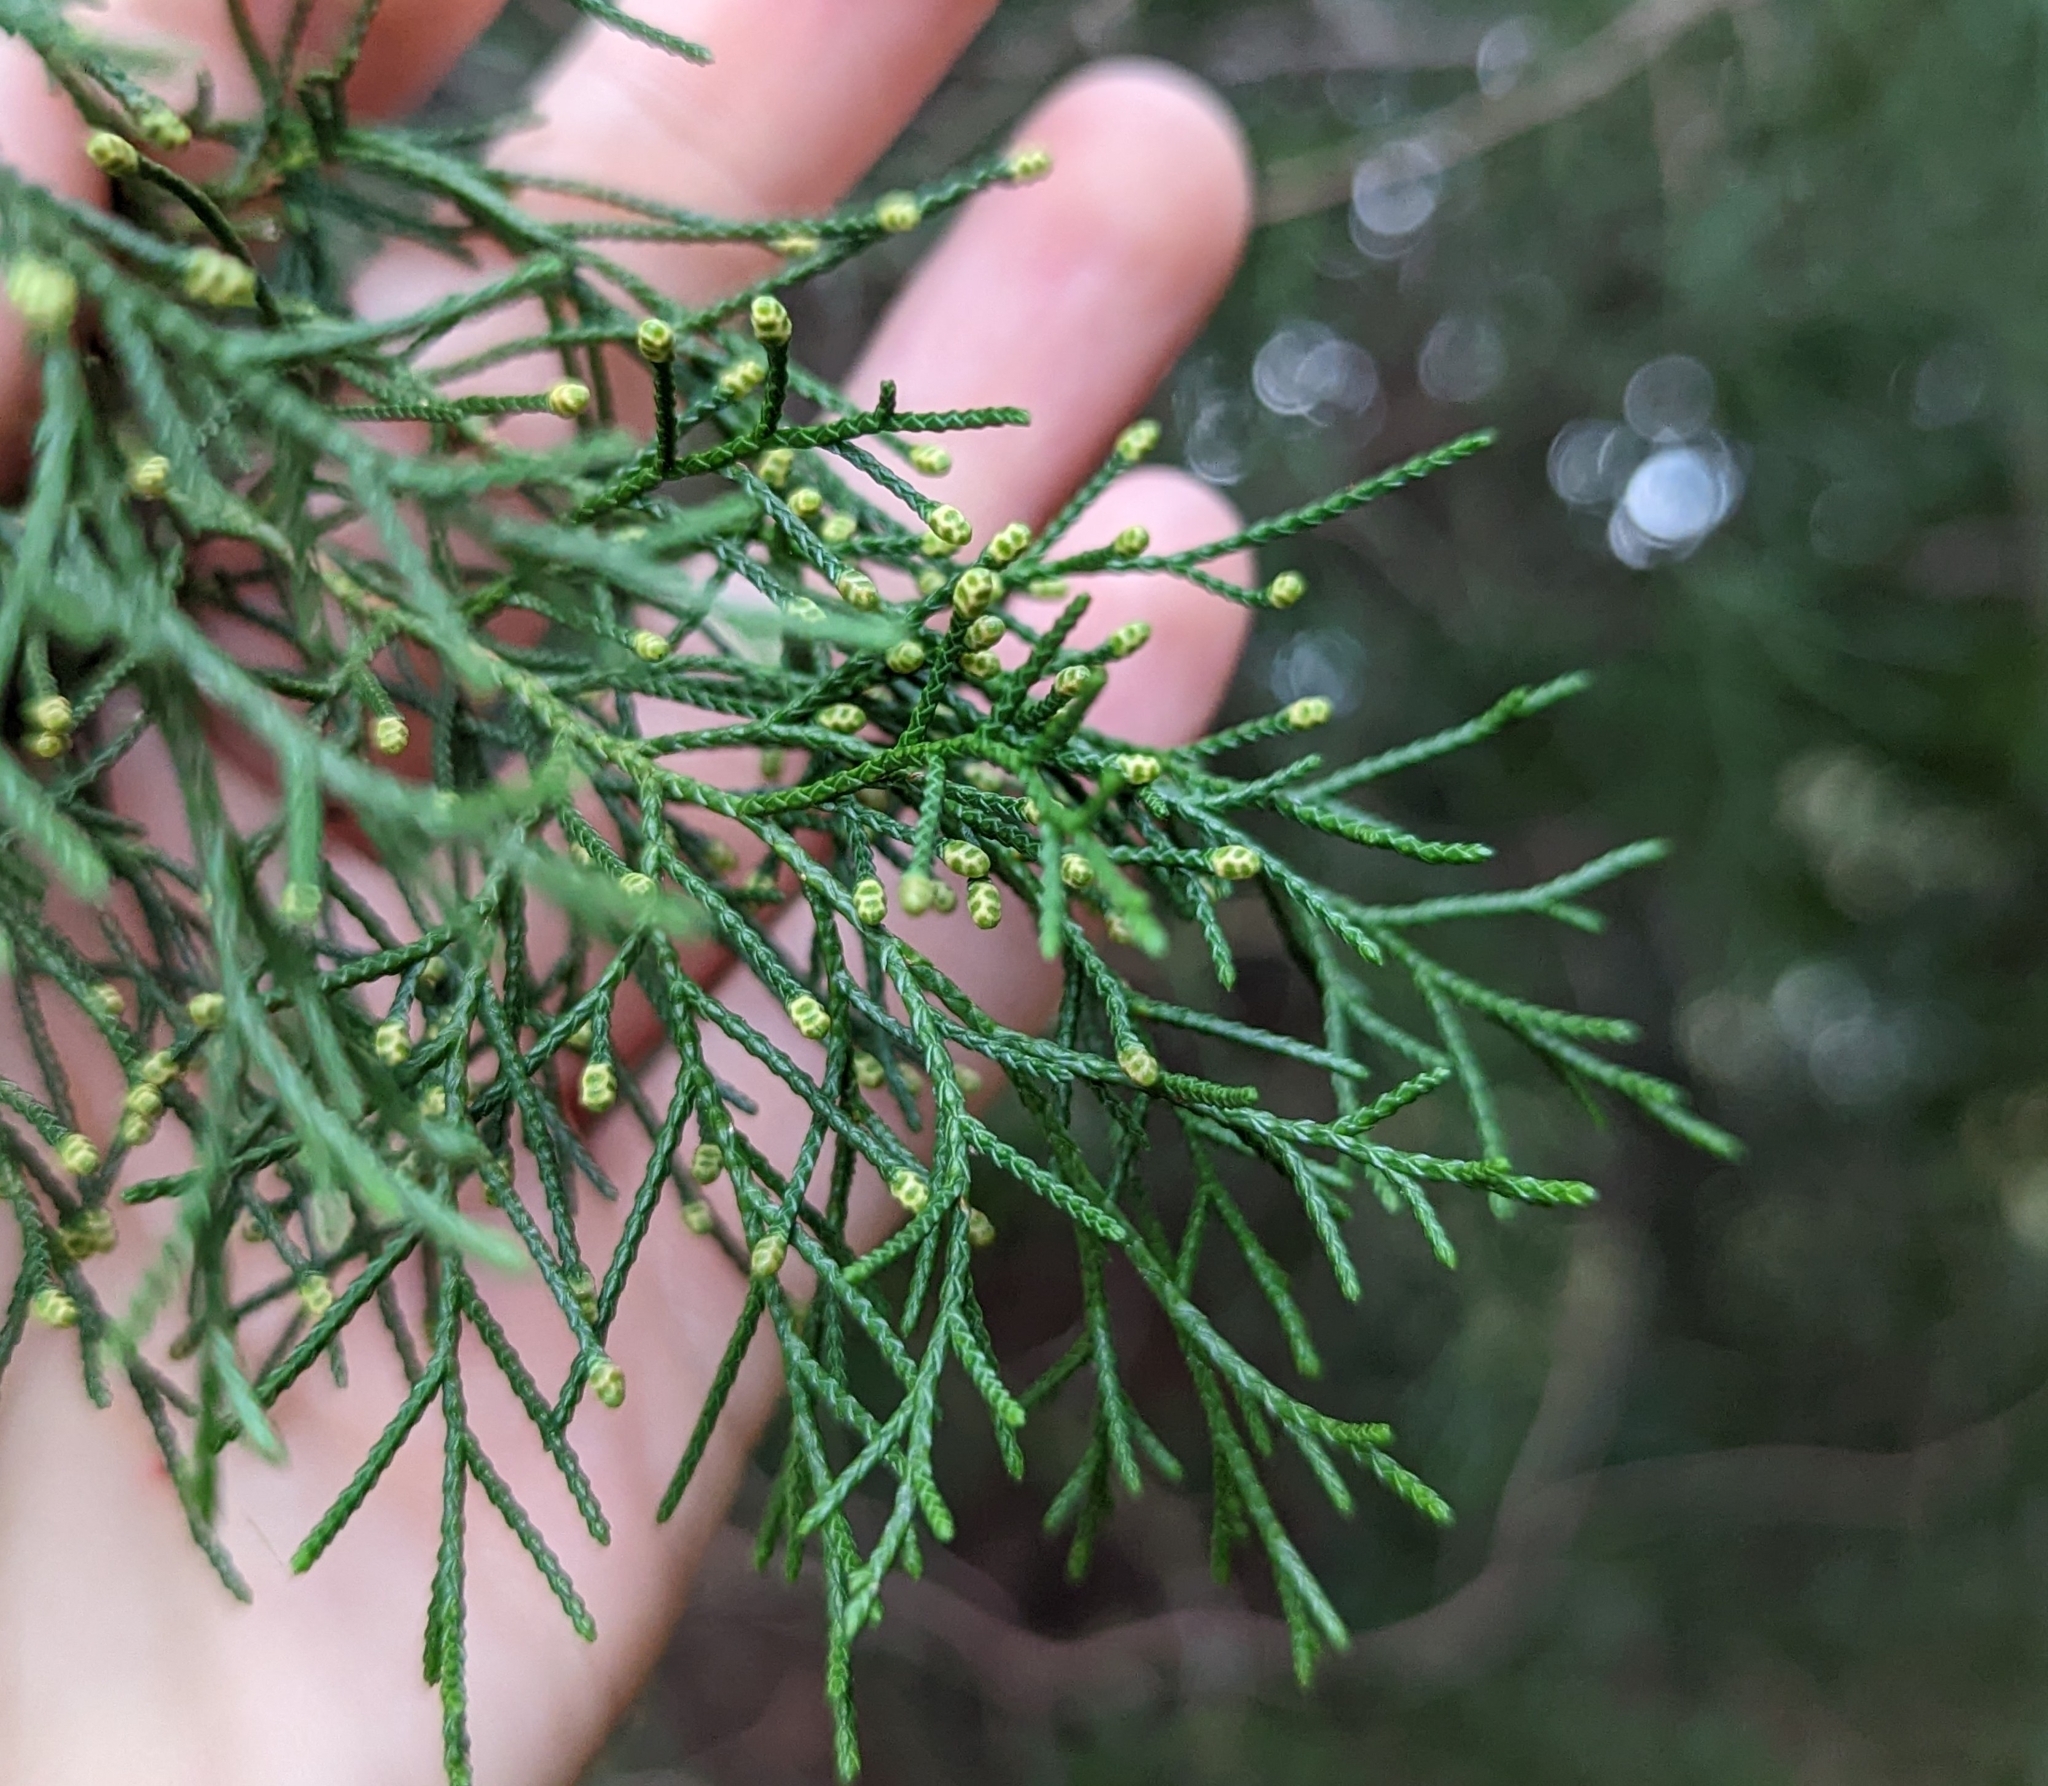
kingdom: Plantae
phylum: Tracheophyta
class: Pinopsida
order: Pinales
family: Cupressaceae
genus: Juniperus
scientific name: Juniperus virginiana
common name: Red juniper
